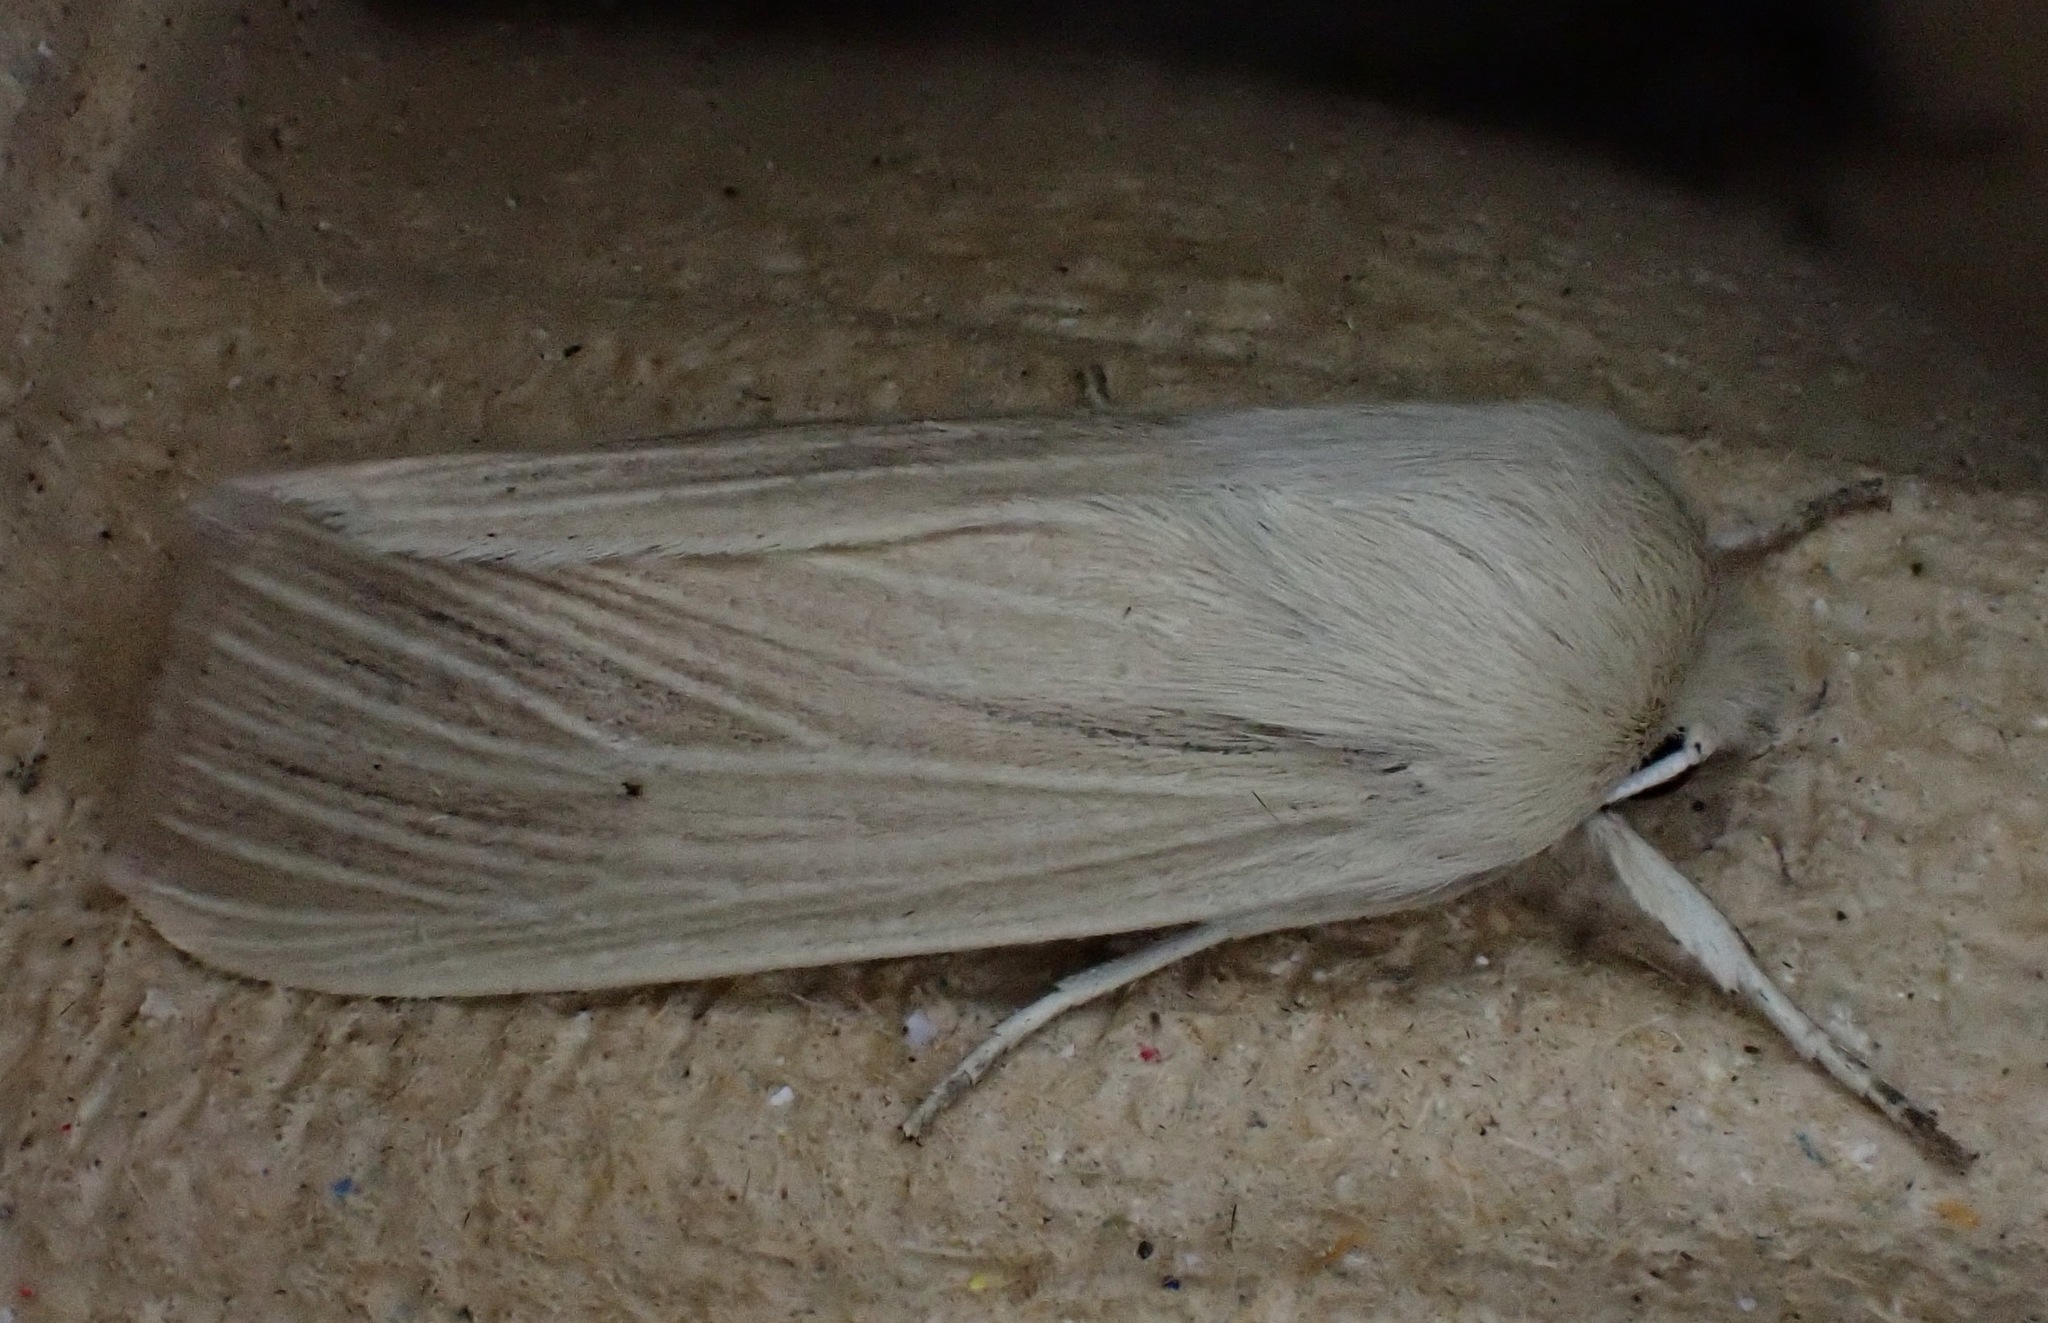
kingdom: Animalia
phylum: Arthropoda
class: Insecta
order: Lepidoptera
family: Noctuidae
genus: Mythimna
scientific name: Mythimna pallens
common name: Common wainscot
